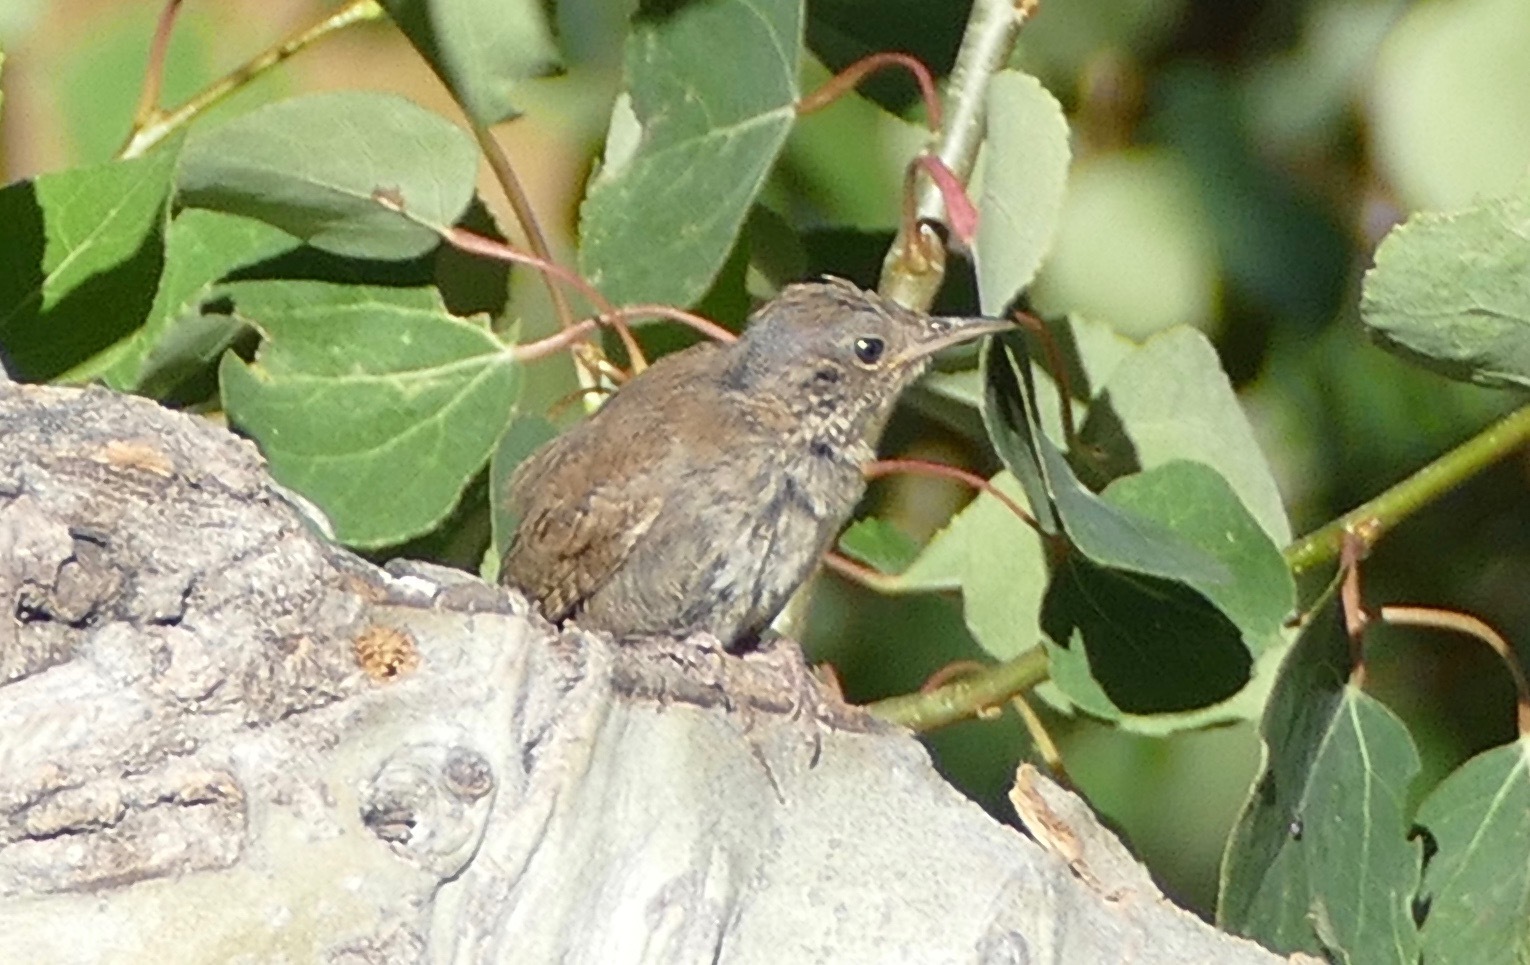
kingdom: Animalia
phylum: Chordata
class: Aves
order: Passeriformes
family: Troglodytidae
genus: Troglodytes
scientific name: Troglodytes aedon
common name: House wren
